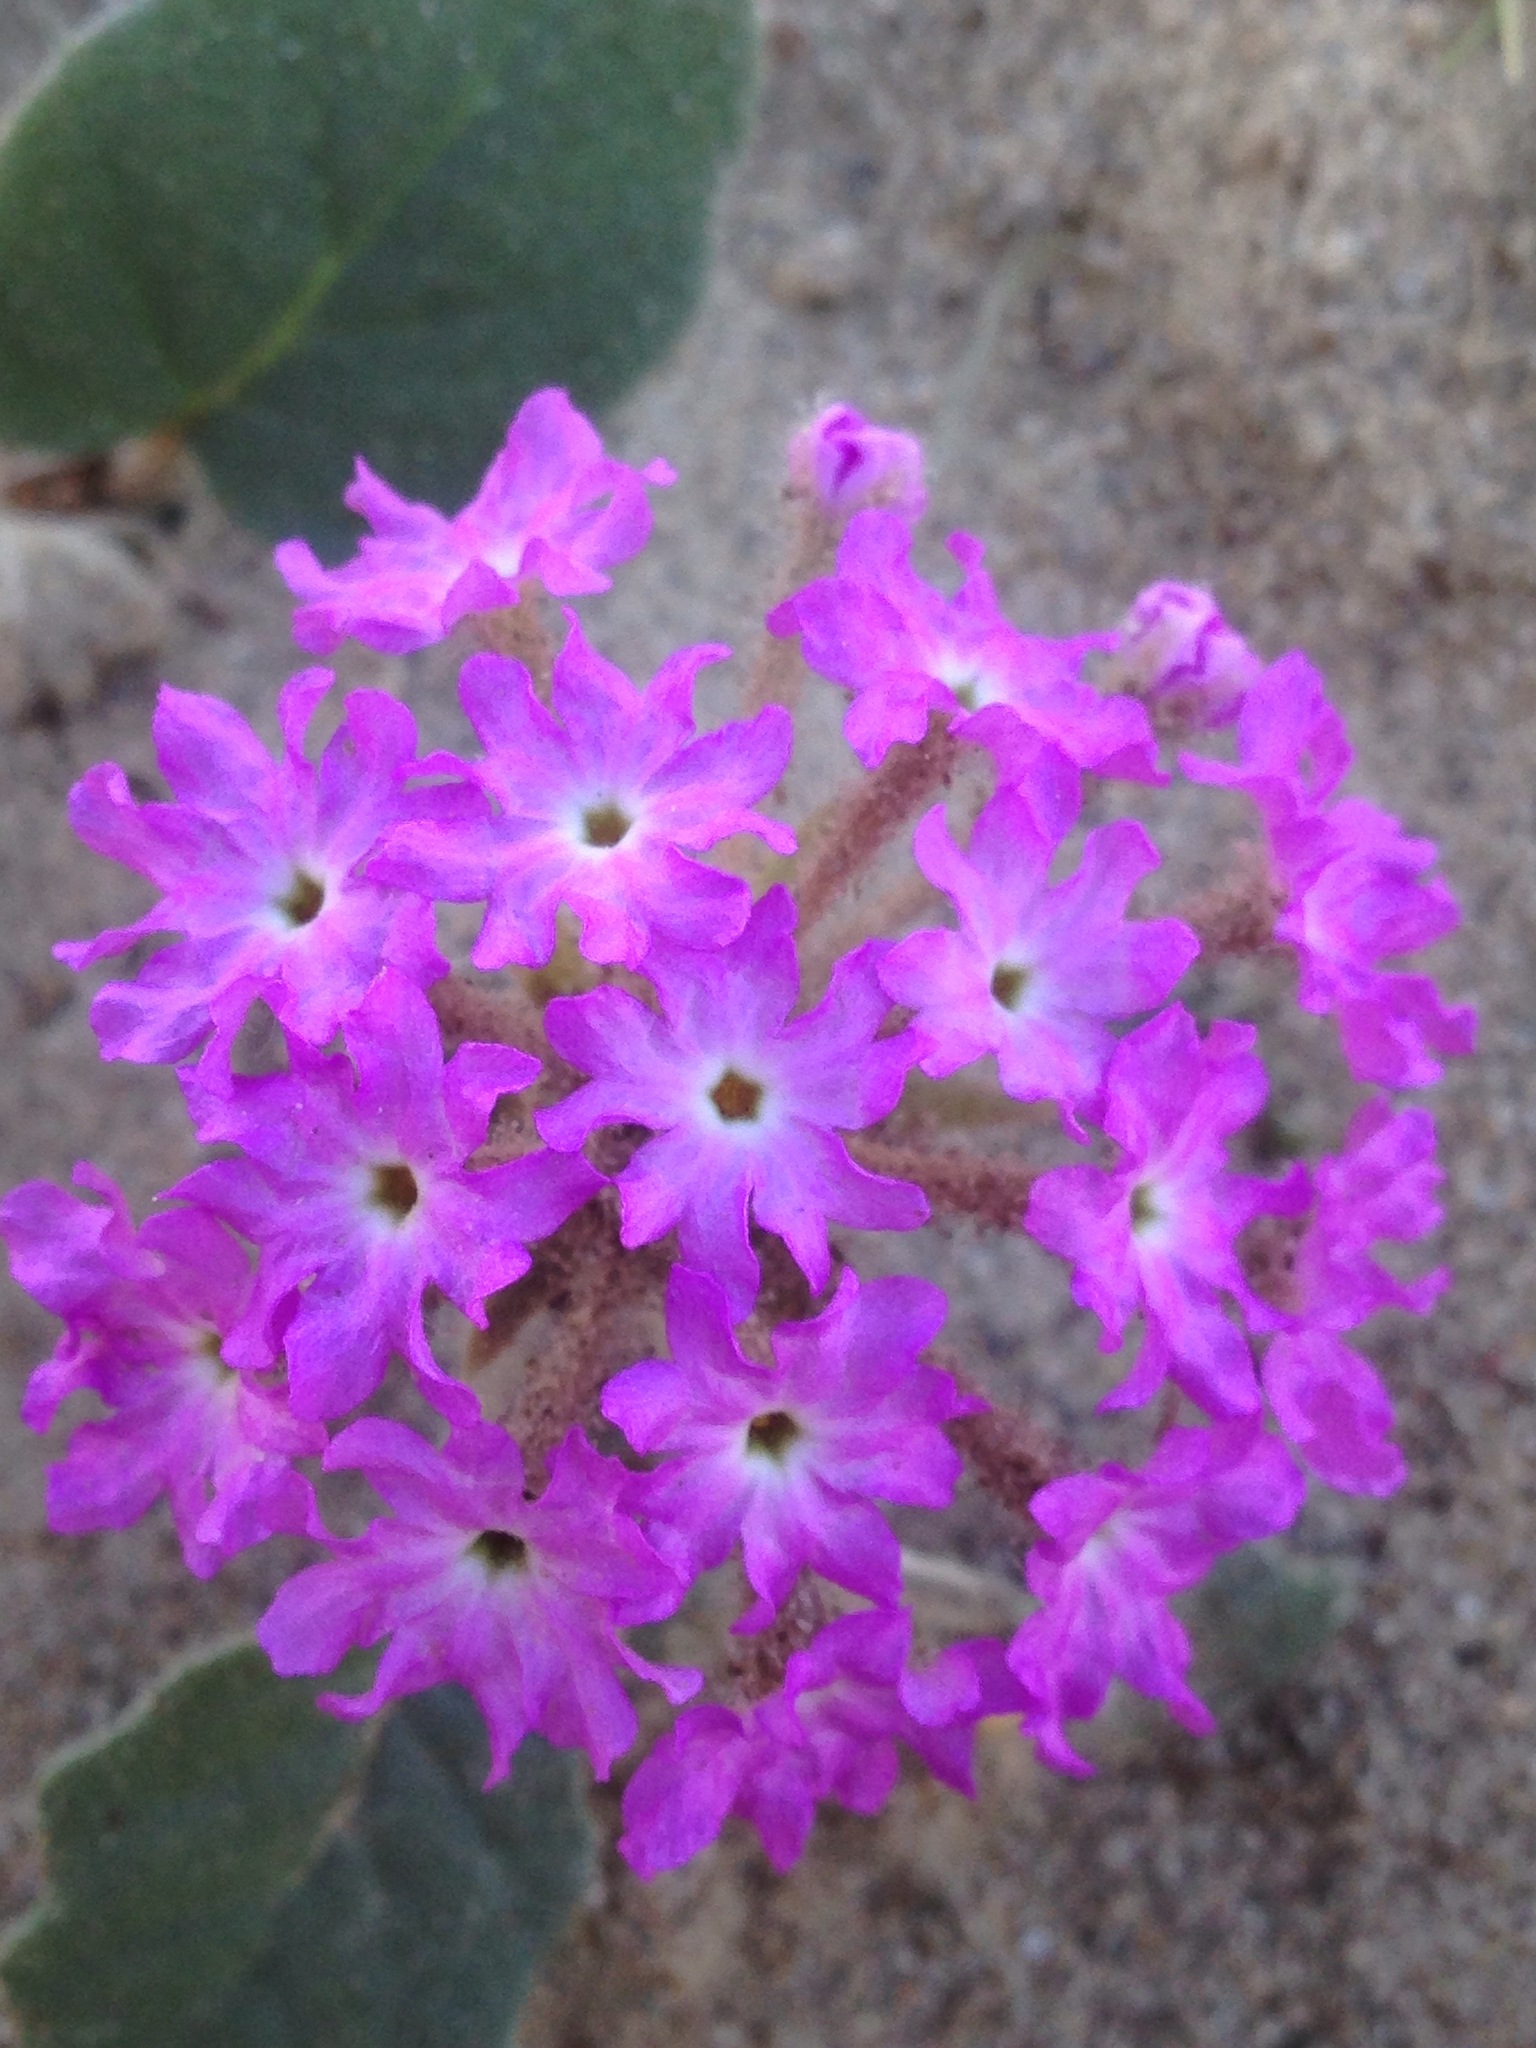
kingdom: Plantae
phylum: Tracheophyta
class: Magnoliopsida
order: Caryophyllales
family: Nyctaginaceae
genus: Abronia
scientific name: Abronia villosa
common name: Desert sand-verbena
